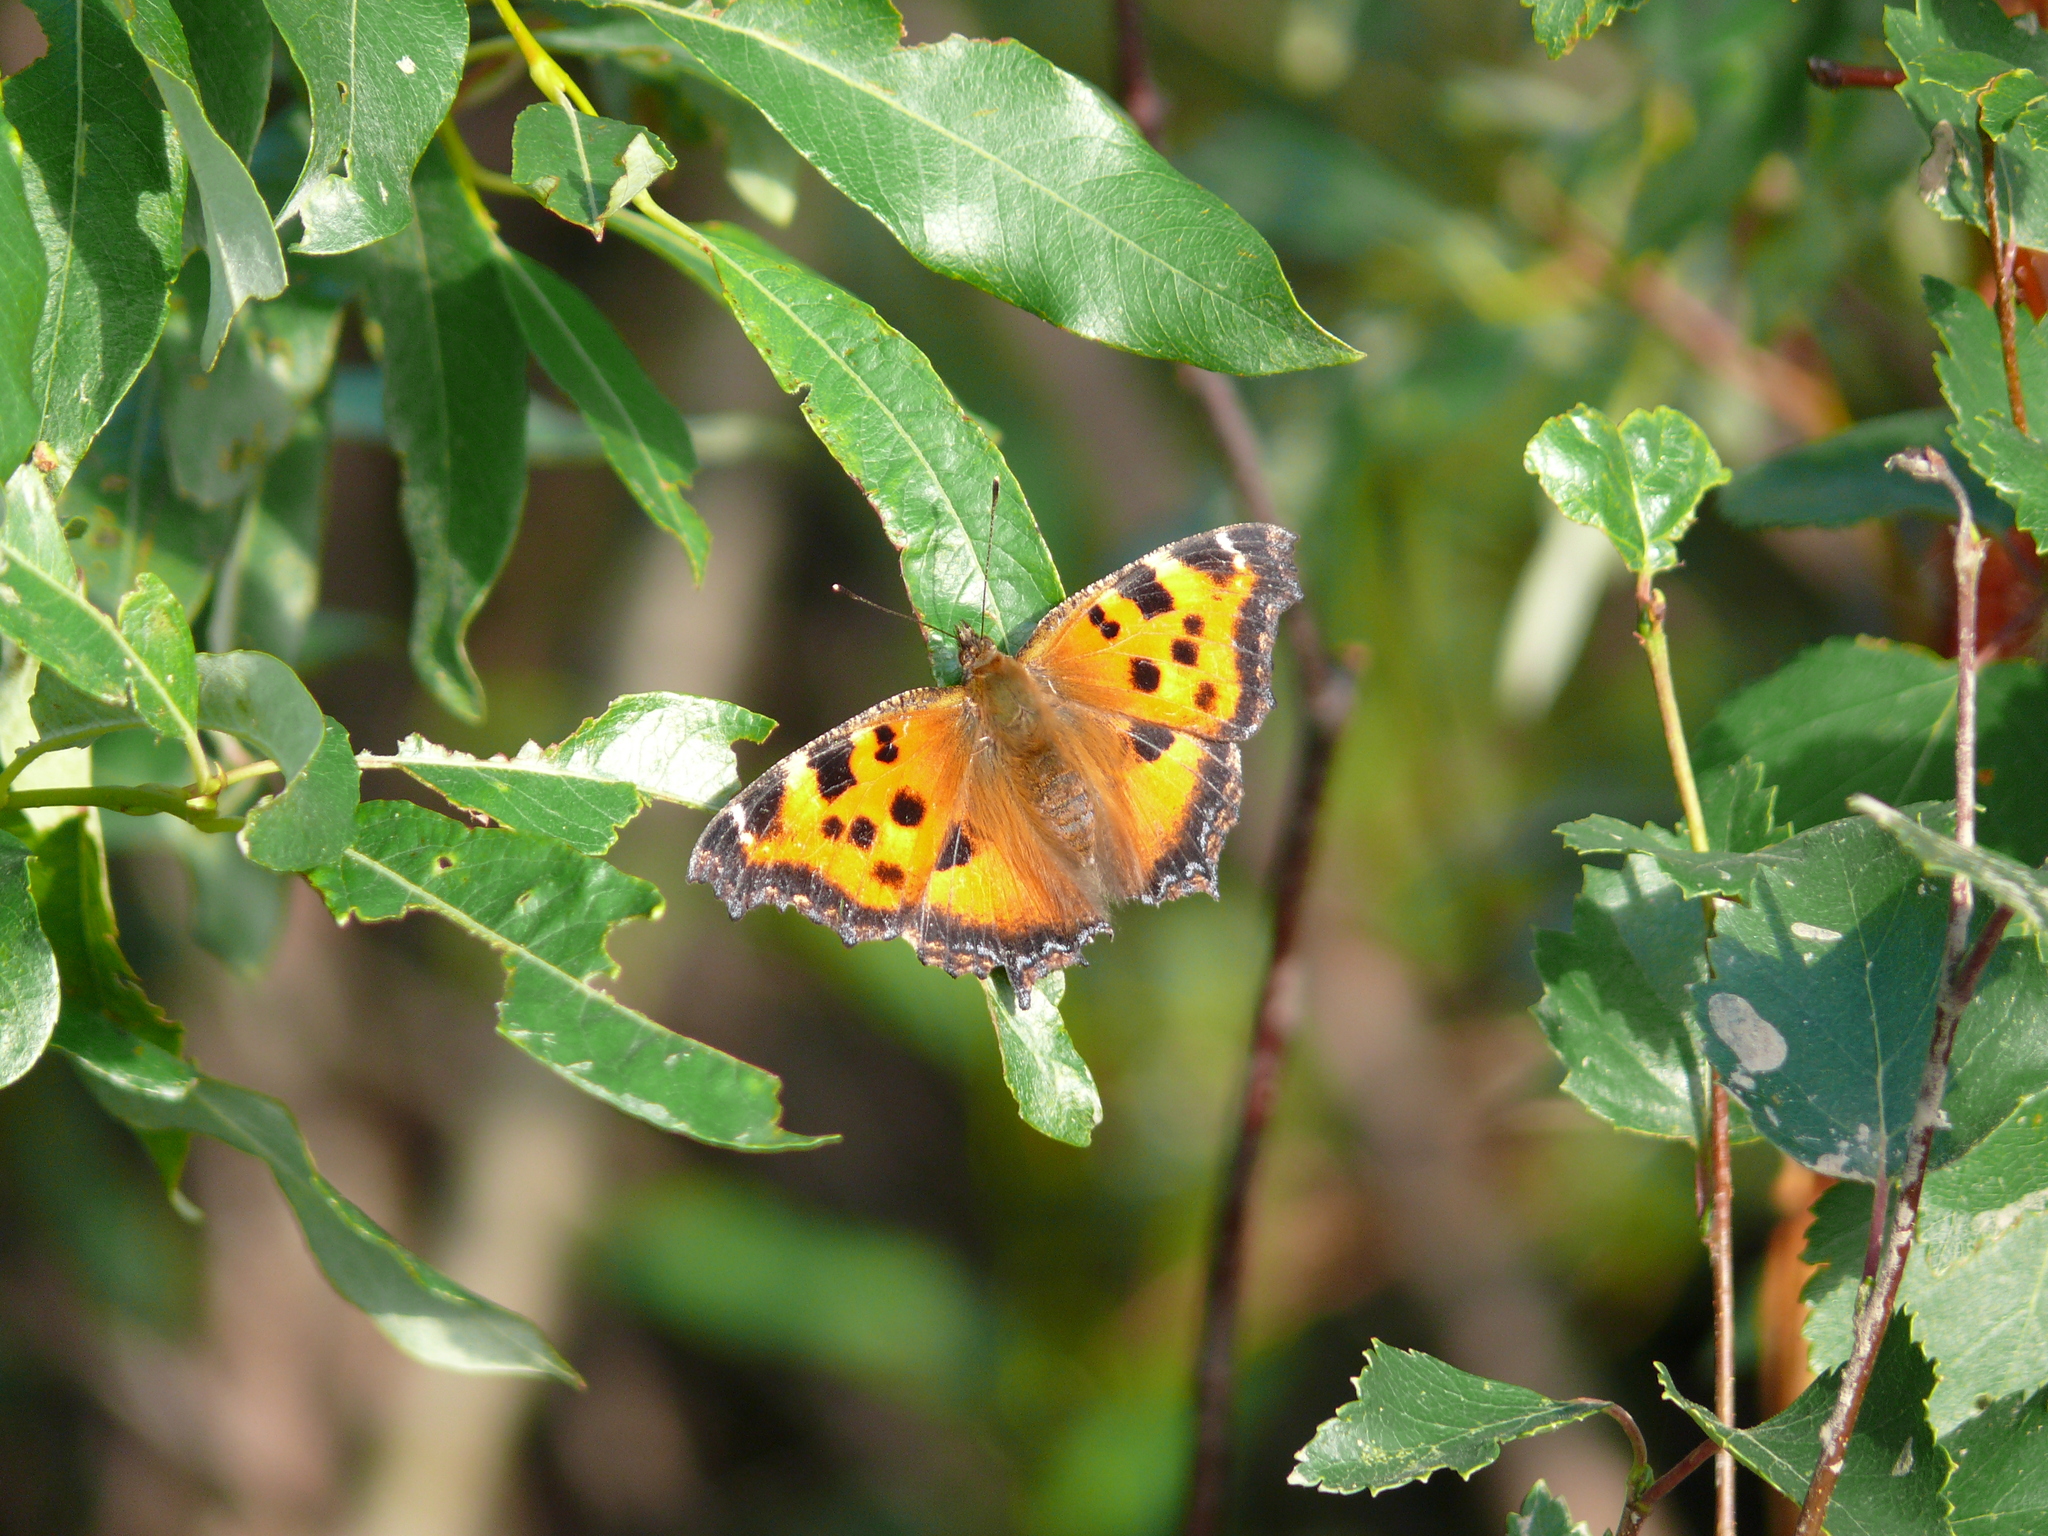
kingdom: Animalia
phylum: Arthropoda
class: Insecta
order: Lepidoptera
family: Nymphalidae
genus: Nymphalis
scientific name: Nymphalis xanthomelas
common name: Scarce tortoiseshell
